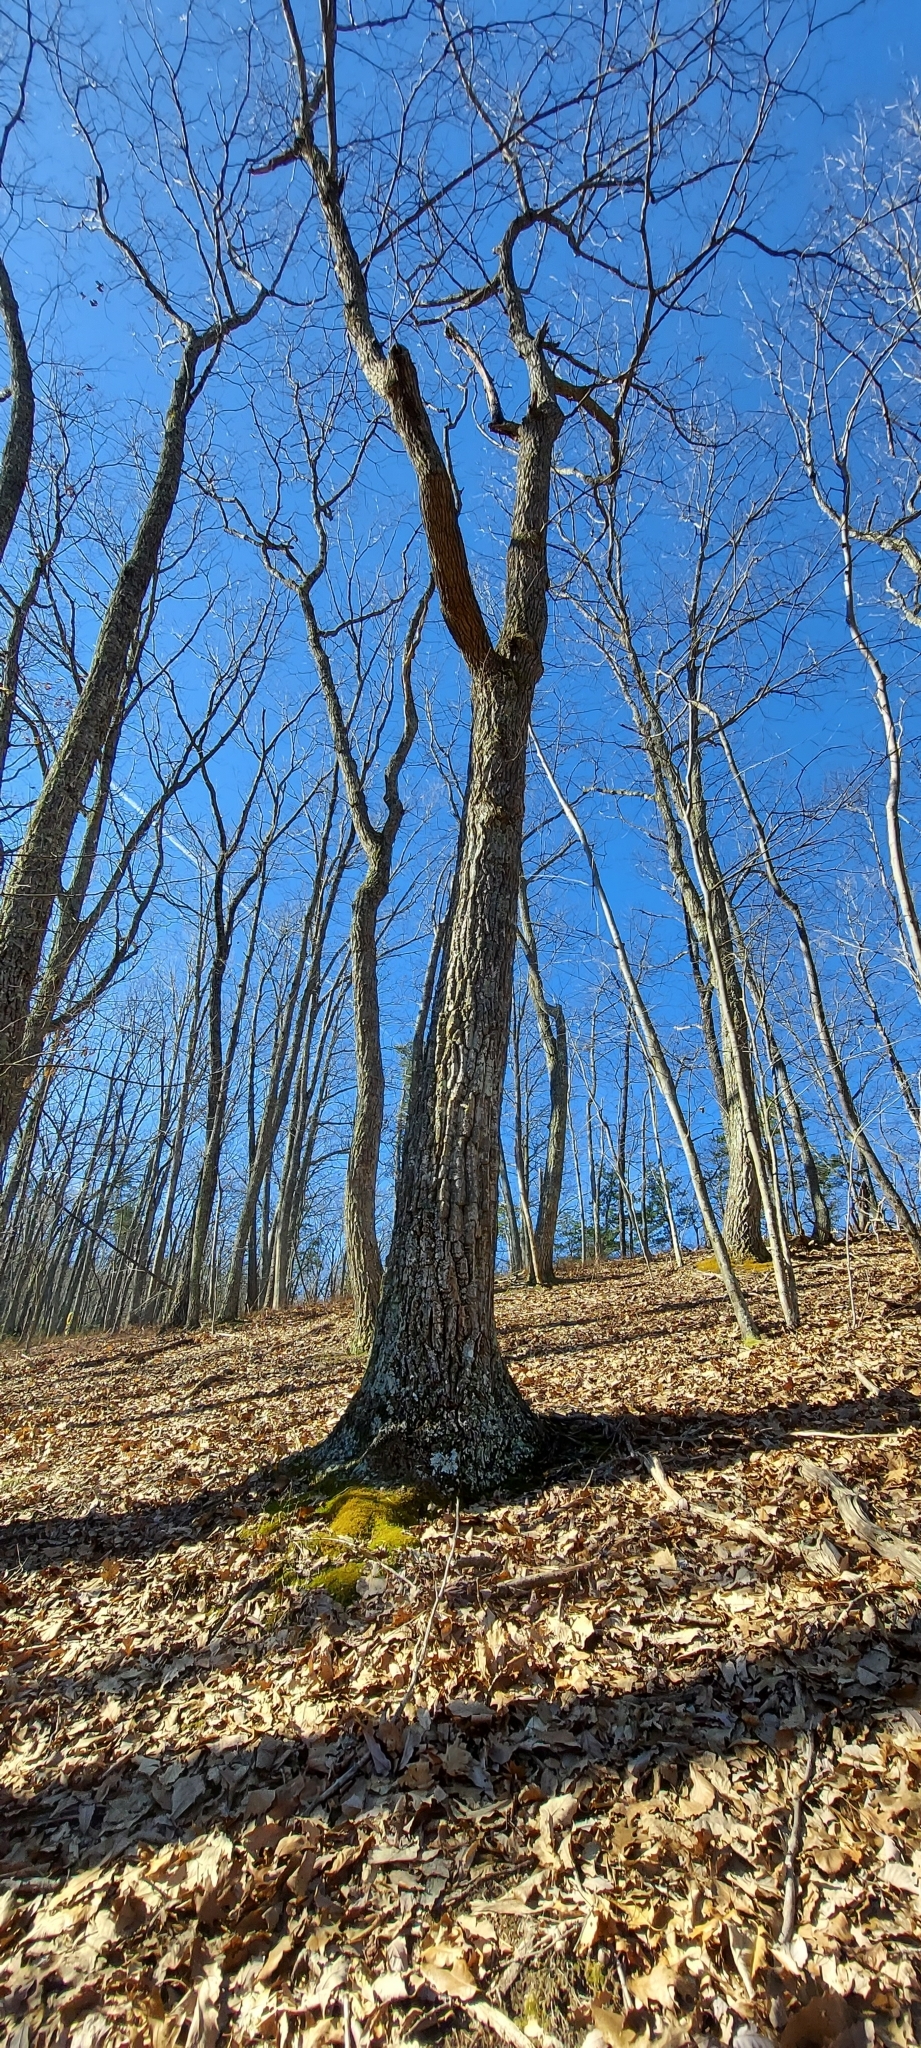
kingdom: Plantae
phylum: Tracheophyta
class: Magnoliopsida
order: Fagales
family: Juglandaceae
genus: Carya
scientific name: Carya ovata
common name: Shagbark hickory
